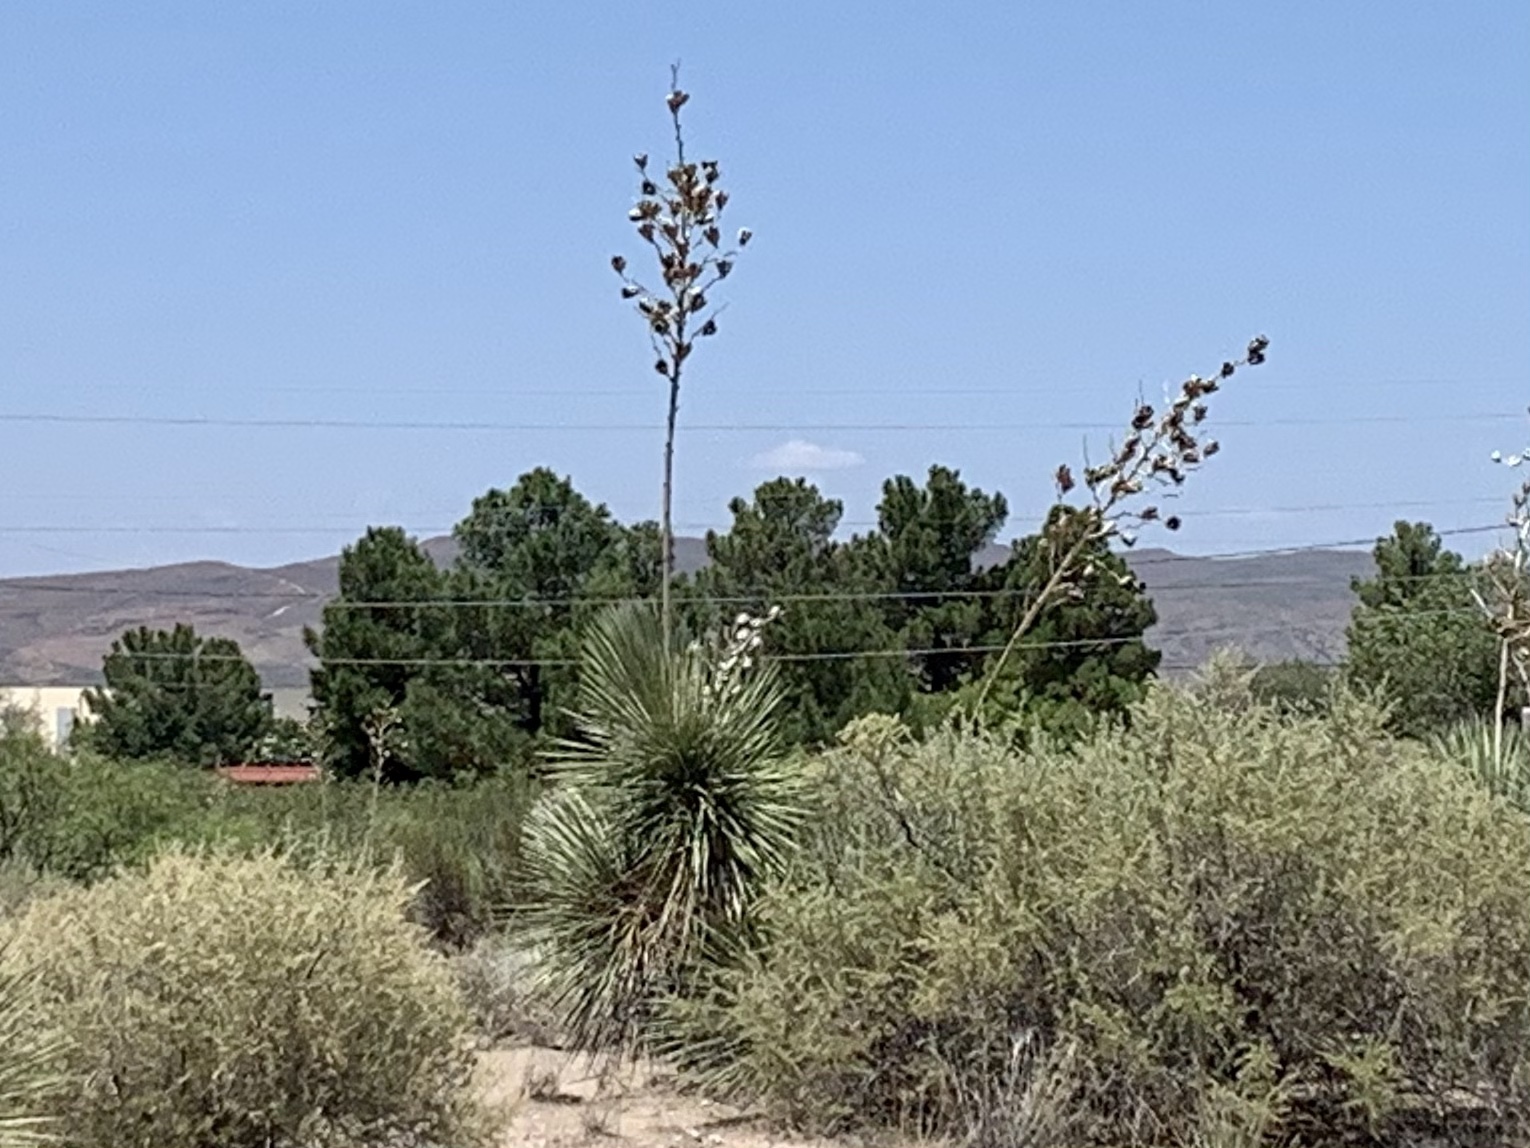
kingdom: Plantae
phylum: Tracheophyta
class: Liliopsida
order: Asparagales
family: Asparagaceae
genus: Yucca
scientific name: Yucca elata
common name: Palmella
